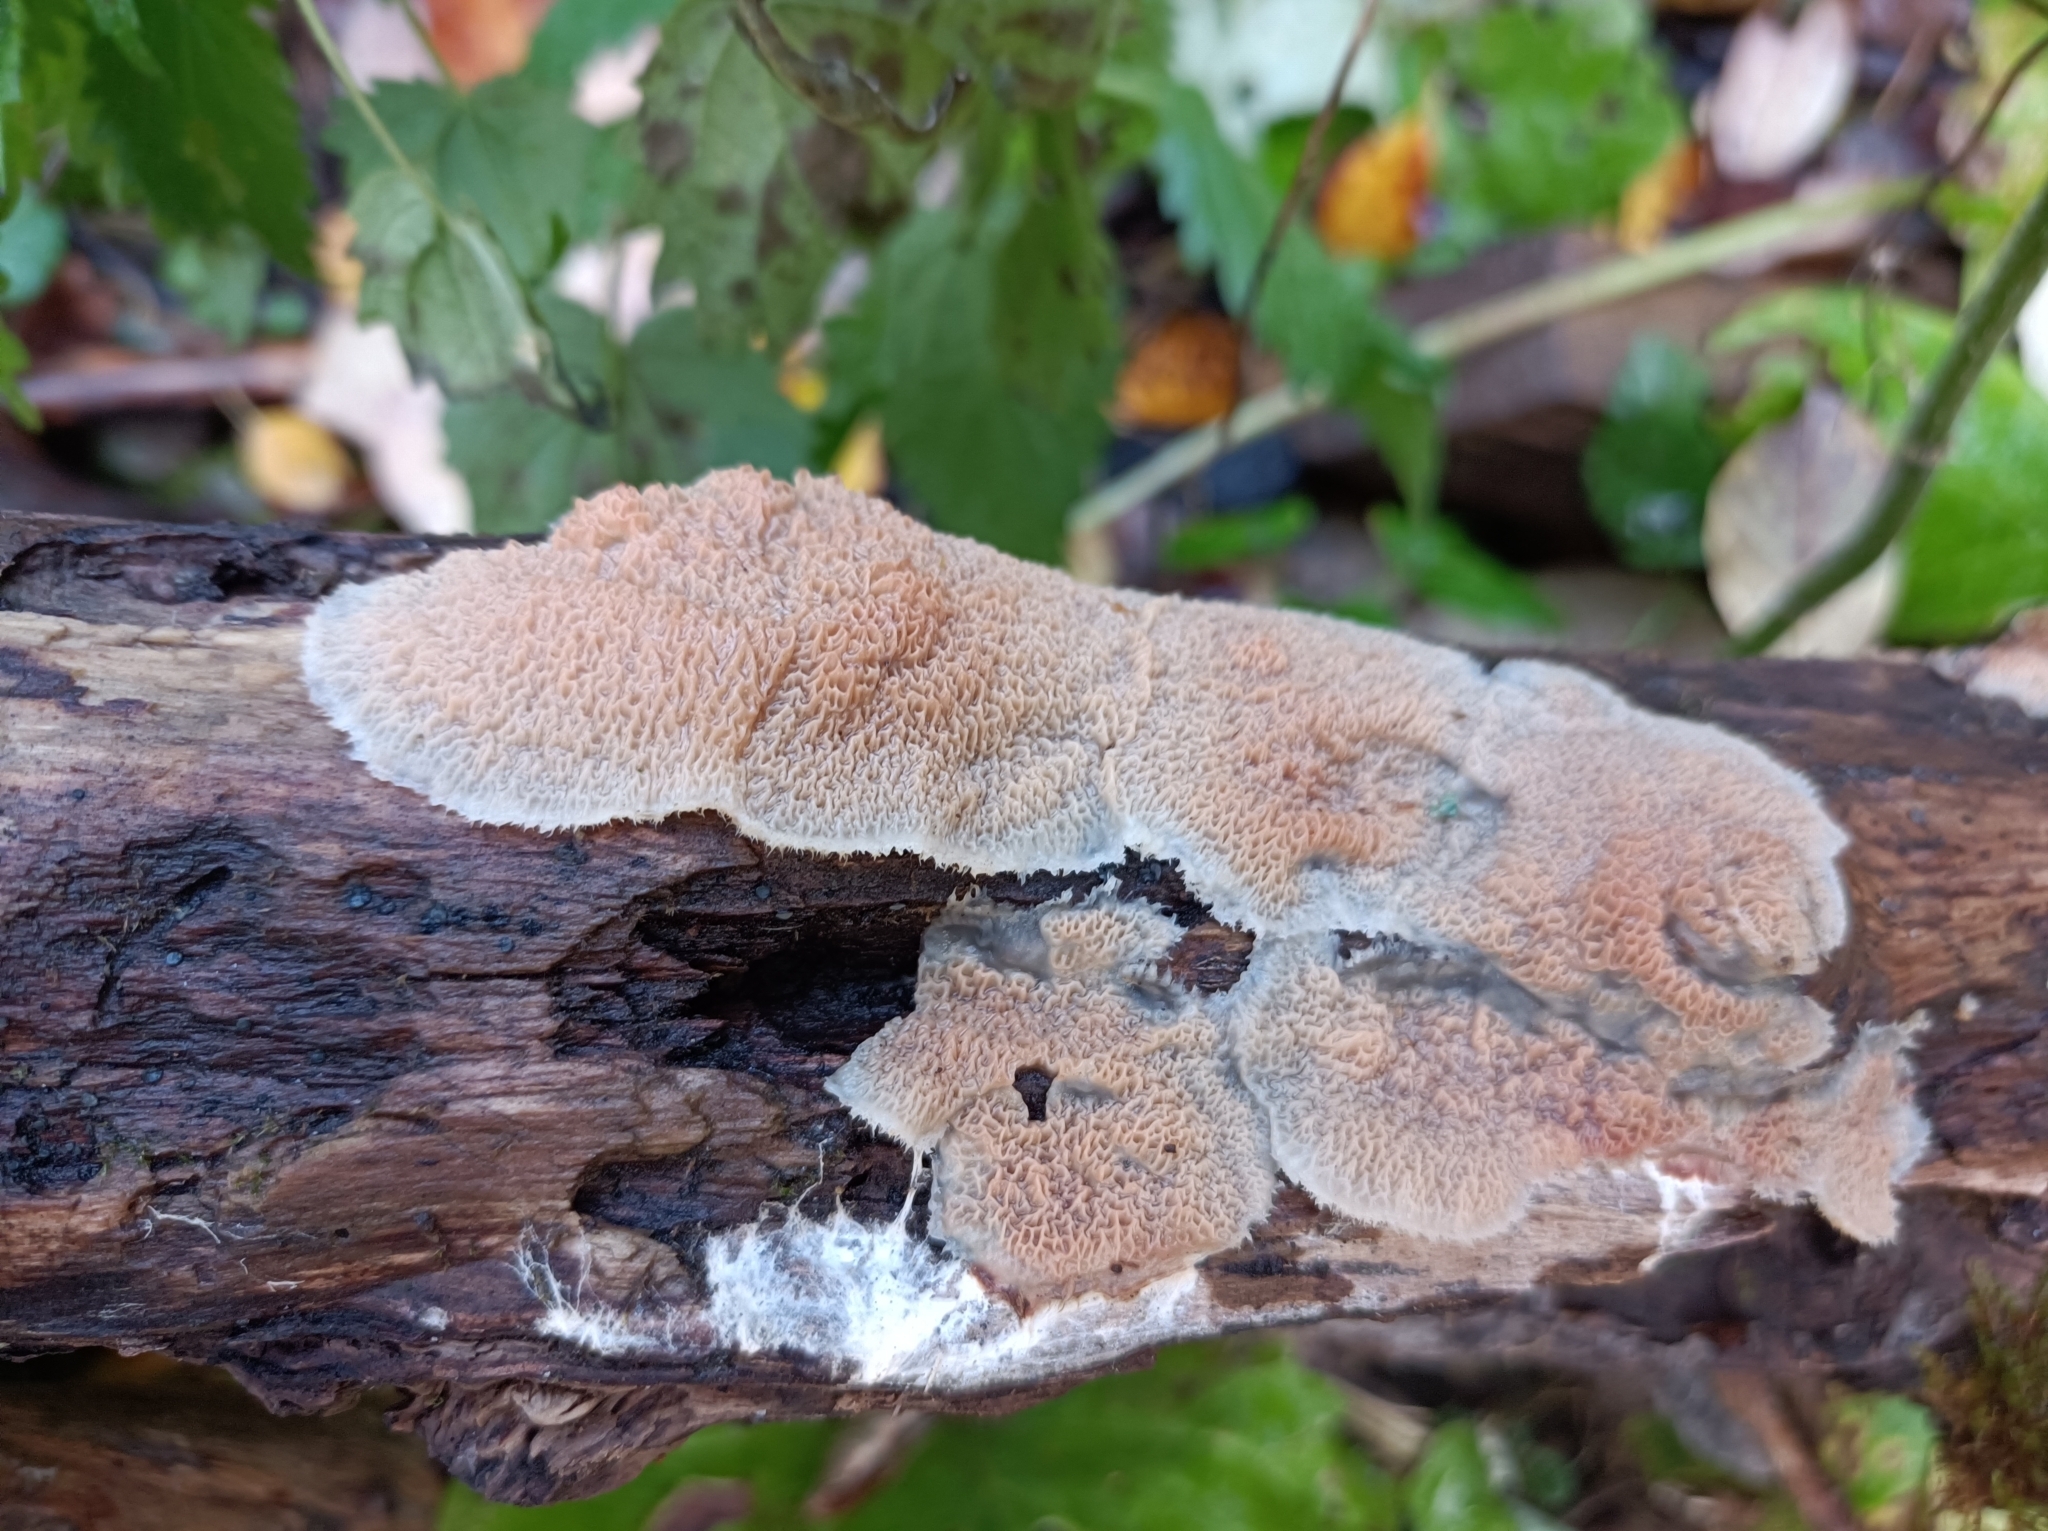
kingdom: Fungi
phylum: Basidiomycota
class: Agaricomycetes
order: Polyporales
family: Meruliaceae
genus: Phlebia
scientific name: Phlebia tremellosa
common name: Jelly rot
